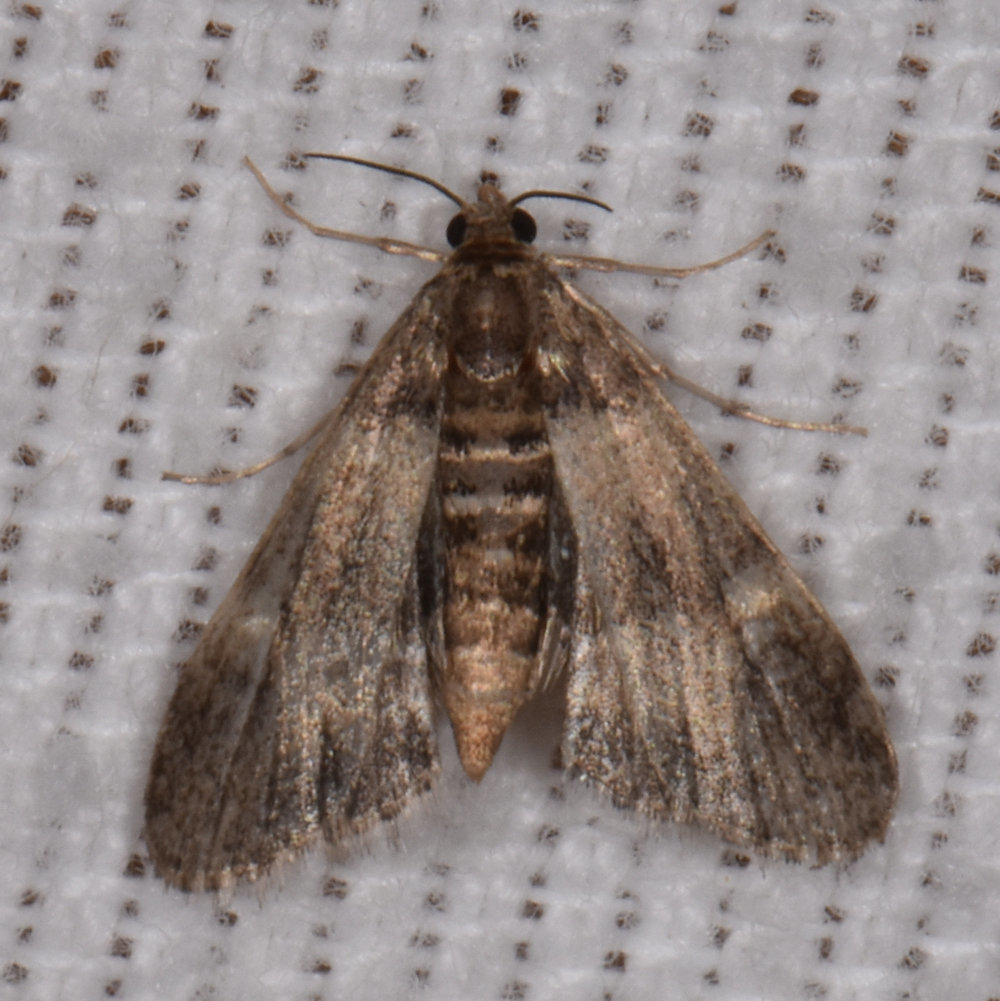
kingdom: Animalia
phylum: Arthropoda
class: Insecta
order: Lepidoptera
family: Crambidae
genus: Elophila
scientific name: Elophila tinealis
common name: Black duckweed moth
